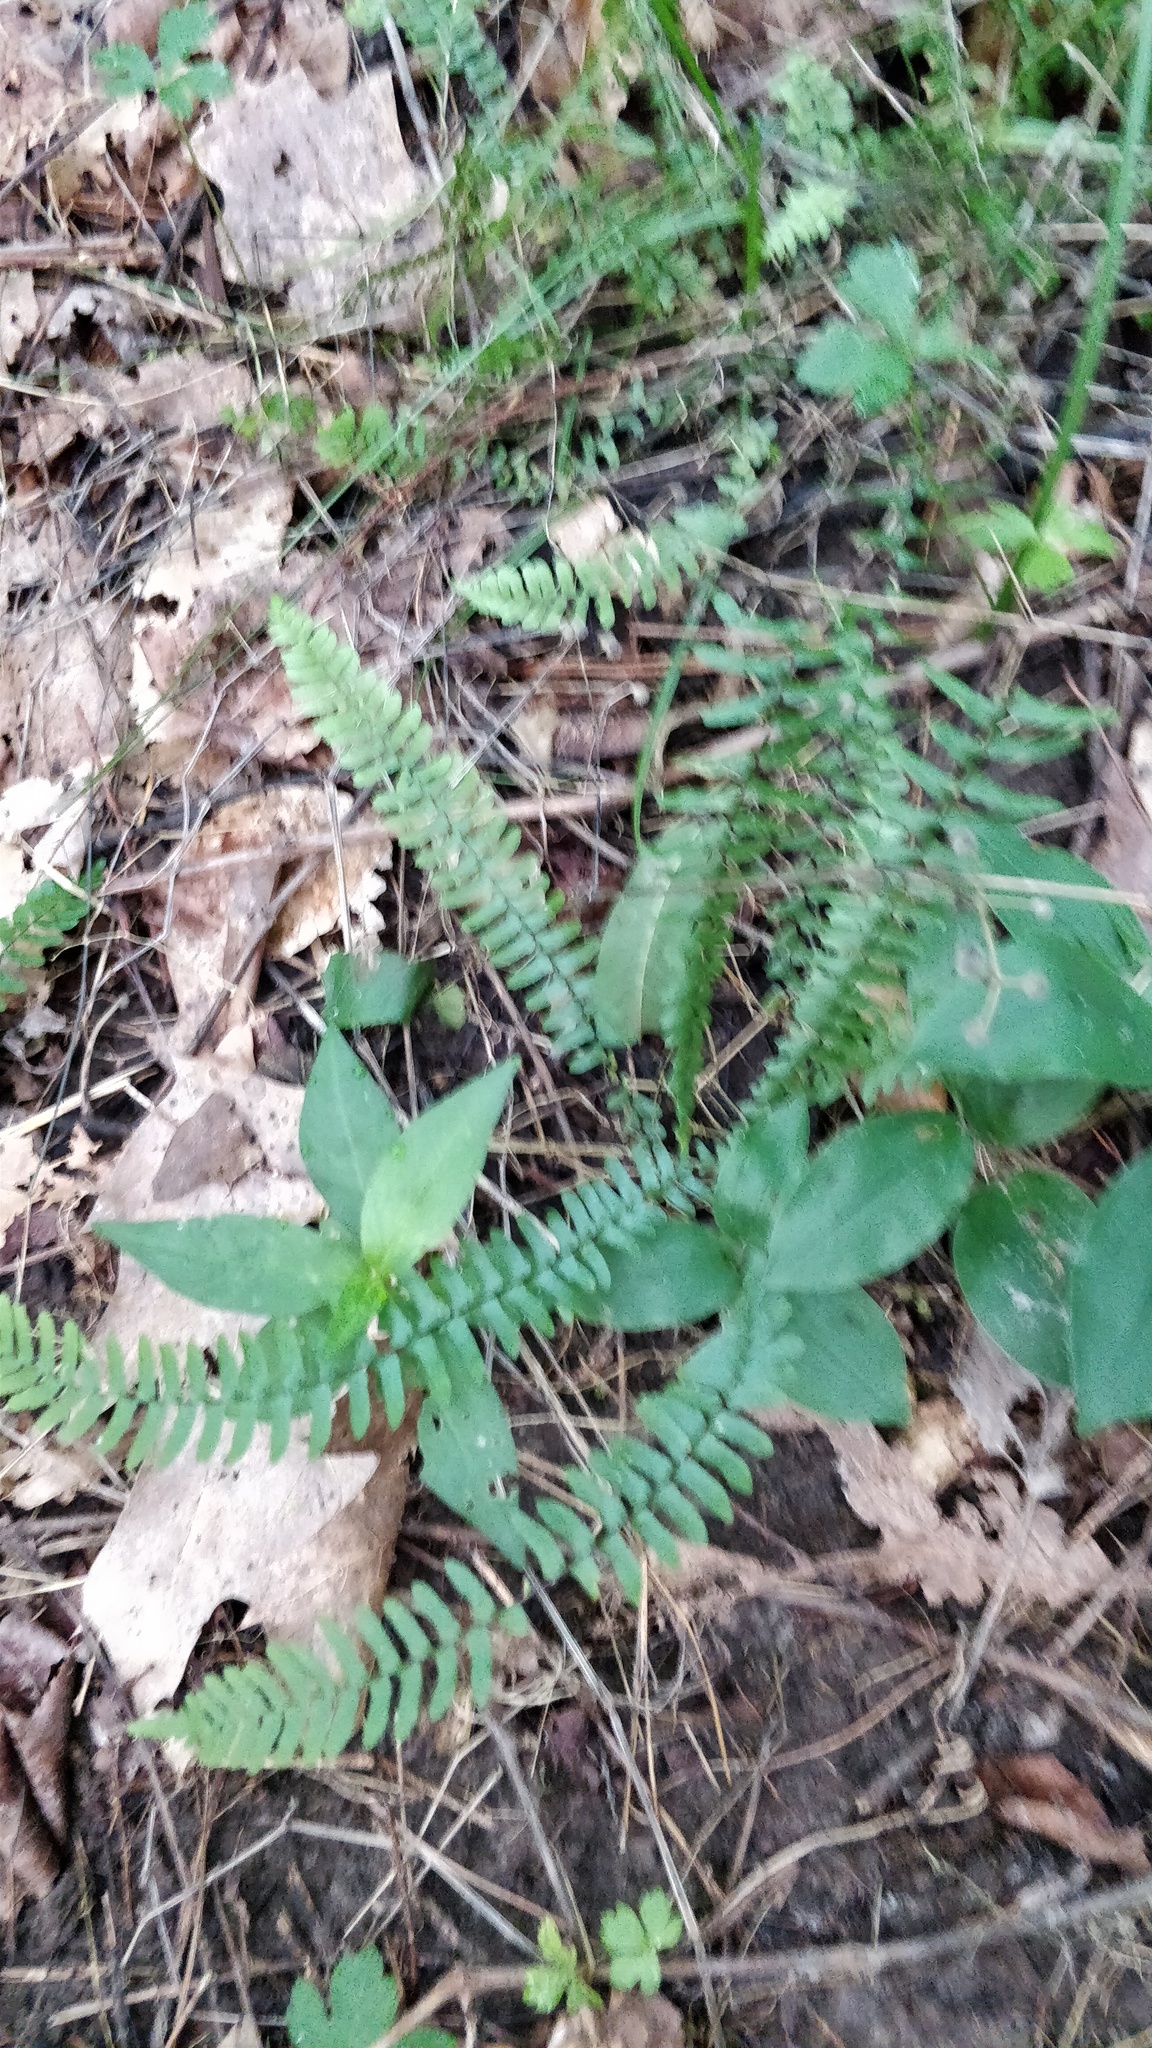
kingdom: Plantae
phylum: Tracheophyta
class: Polypodiopsida
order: Polypodiales
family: Aspleniaceae
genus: Asplenium
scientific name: Asplenium platyneuron
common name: Ebony spleenwort
